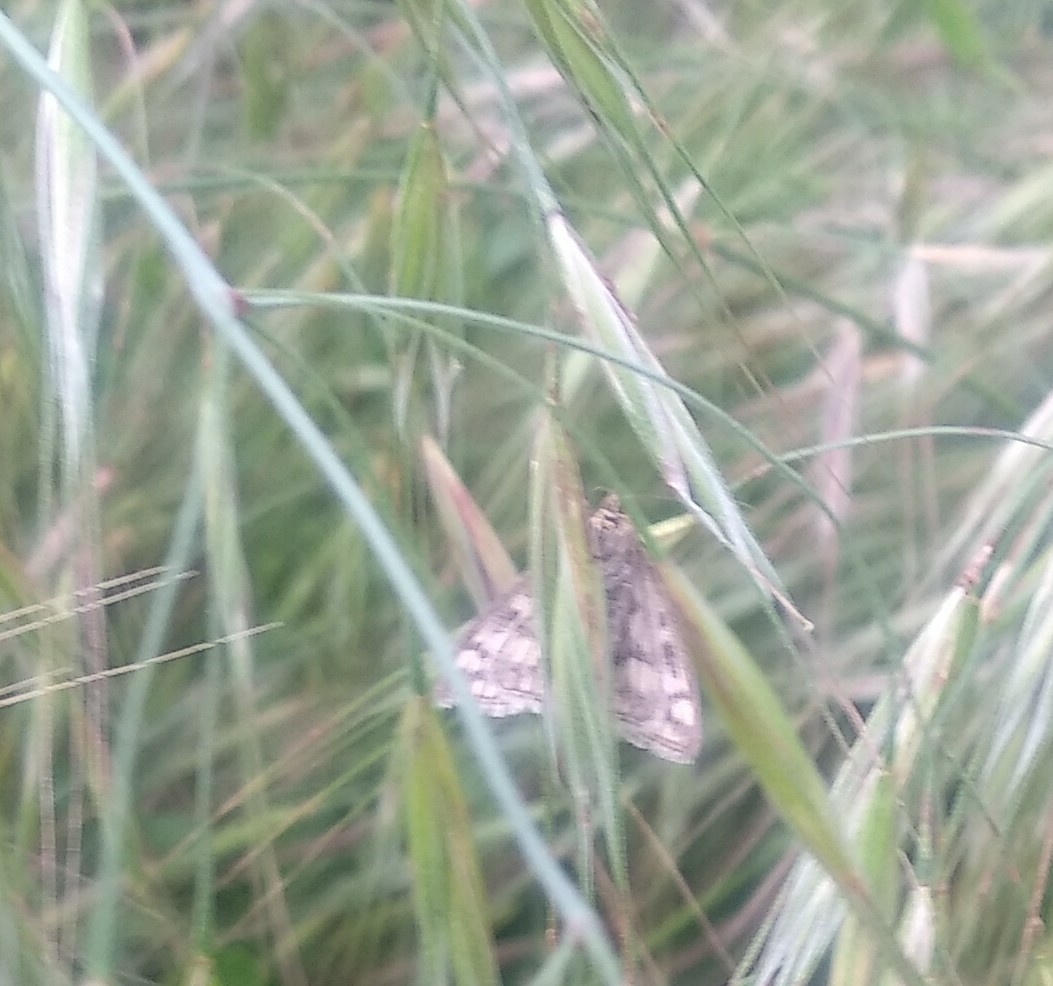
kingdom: Animalia
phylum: Arthropoda
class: Insecta
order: Lepidoptera
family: Crambidae
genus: Sitochroa
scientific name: Sitochroa verticalis
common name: Lesser pearl
